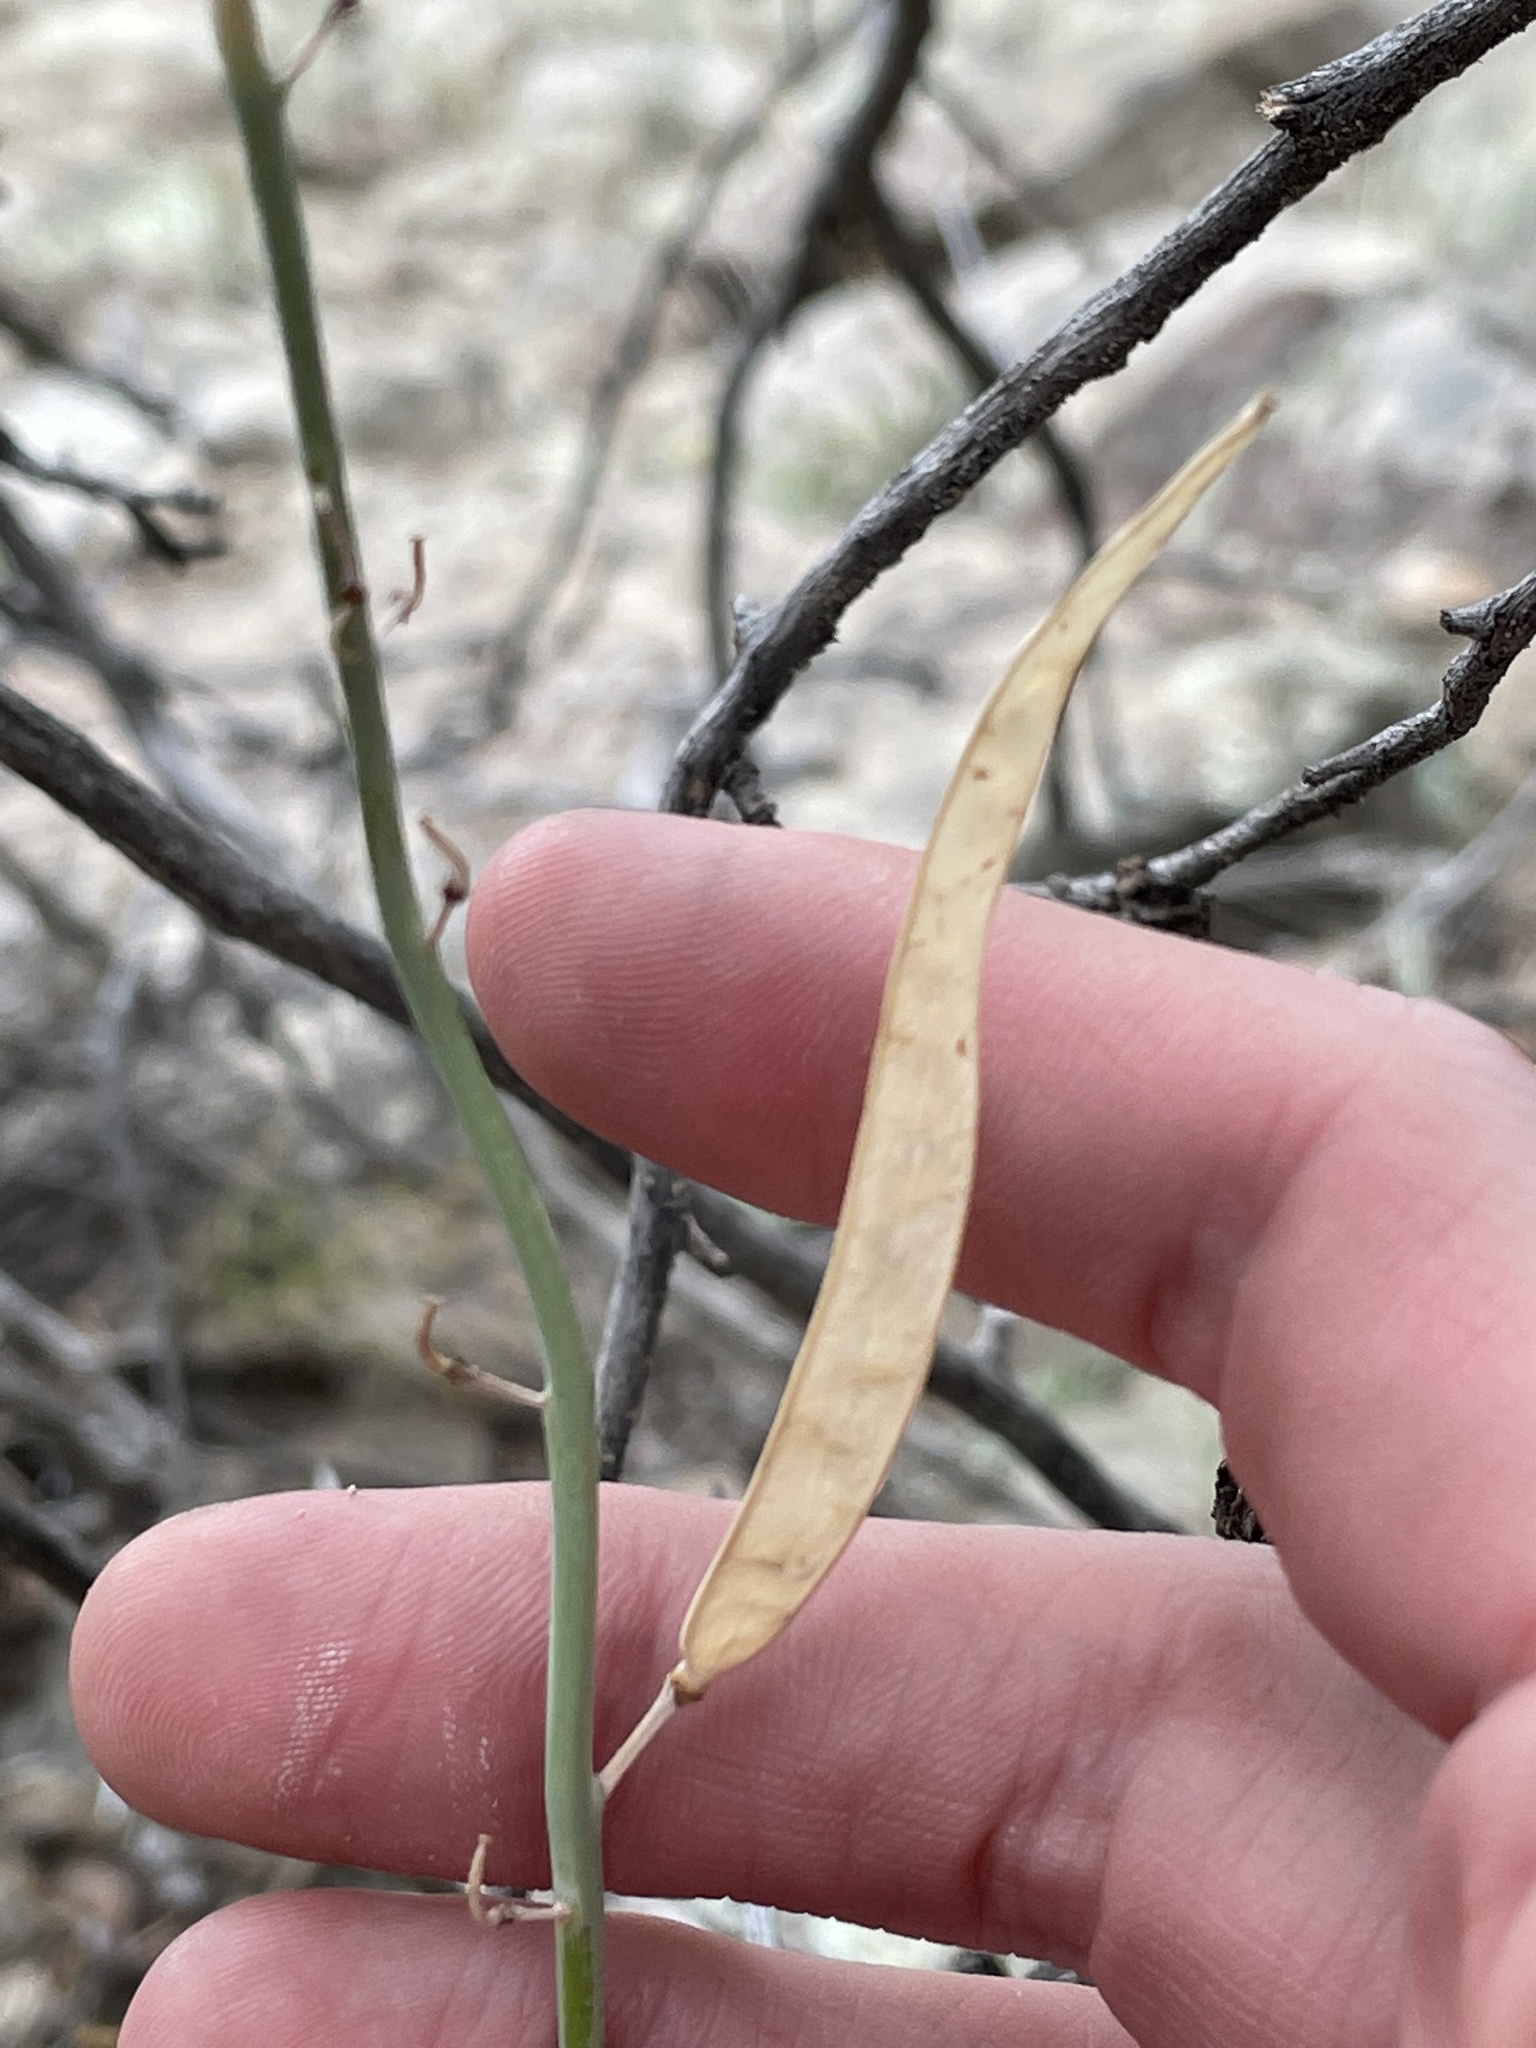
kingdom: Plantae
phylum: Tracheophyta
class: Magnoliopsida
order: Brassicales
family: Brassicaceae
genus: Streptanthus
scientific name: Streptanthus cordatus
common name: Heart-leaf jewel-flower
